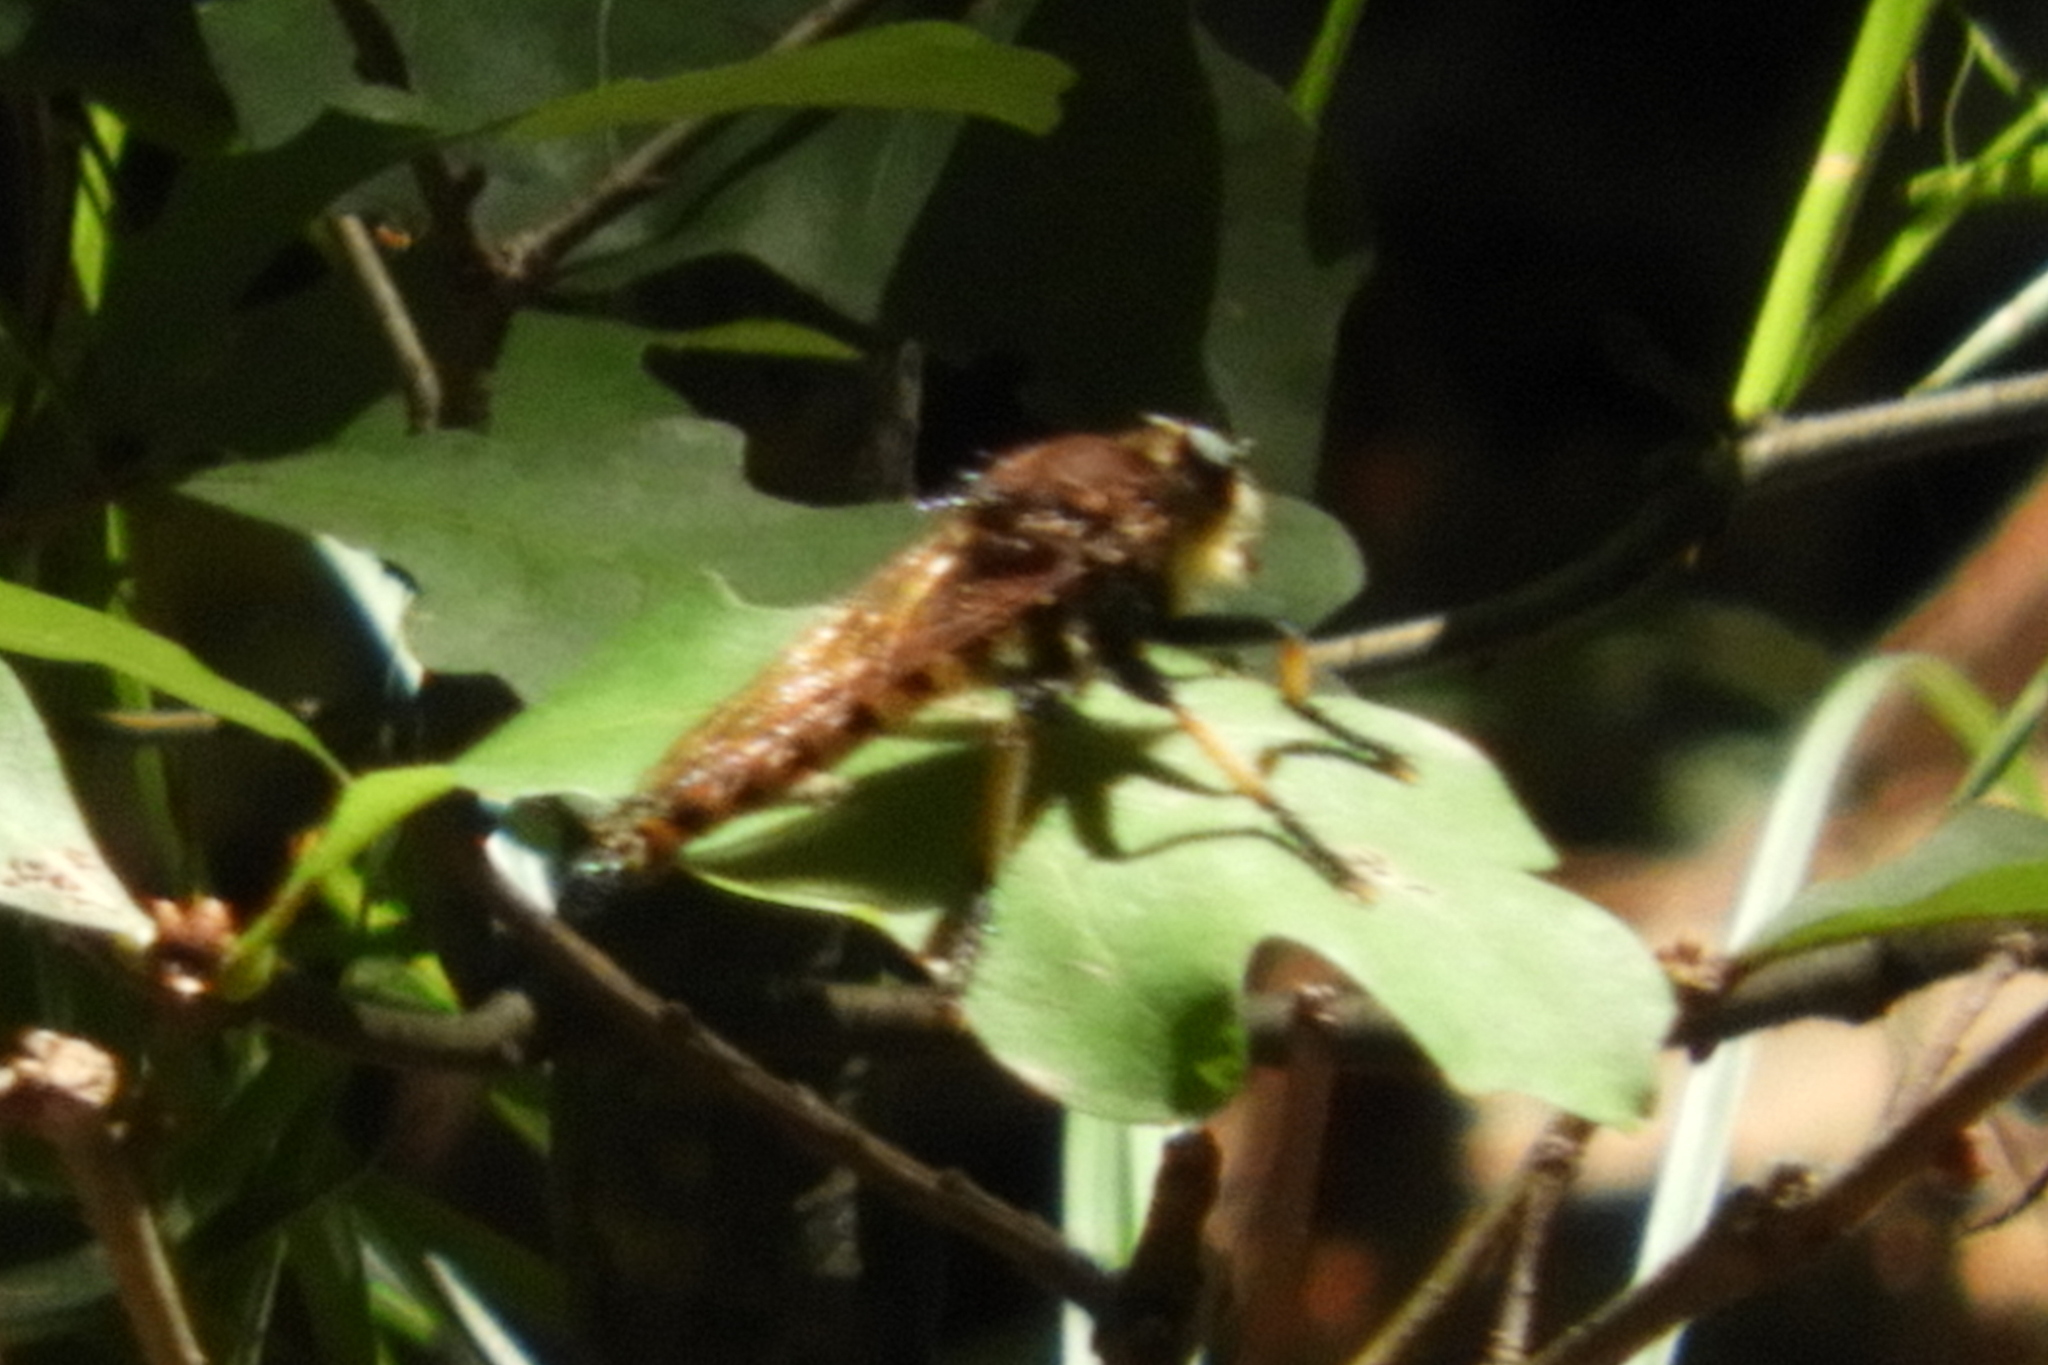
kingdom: Animalia
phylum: Arthropoda
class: Insecta
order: Diptera
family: Asilidae
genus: Promachus
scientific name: Promachus rufipes
